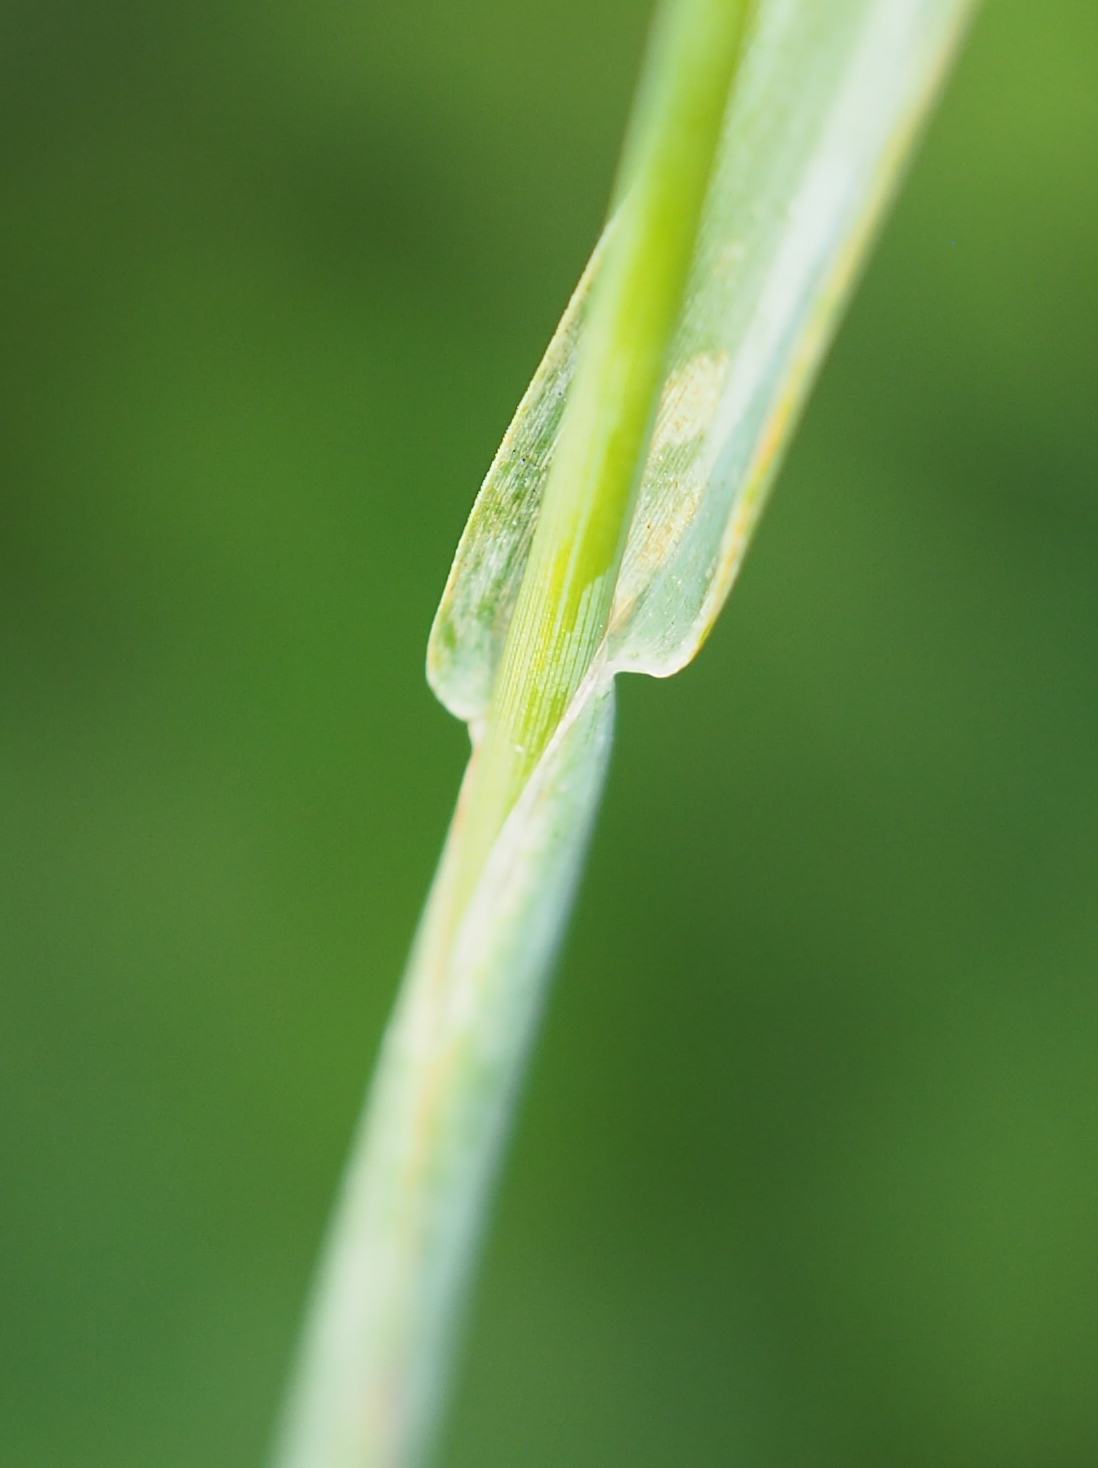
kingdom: Plantae
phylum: Tracheophyta
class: Liliopsida
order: Poales
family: Poaceae
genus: Phleum
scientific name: Phleum pratense
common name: Timothy grass
